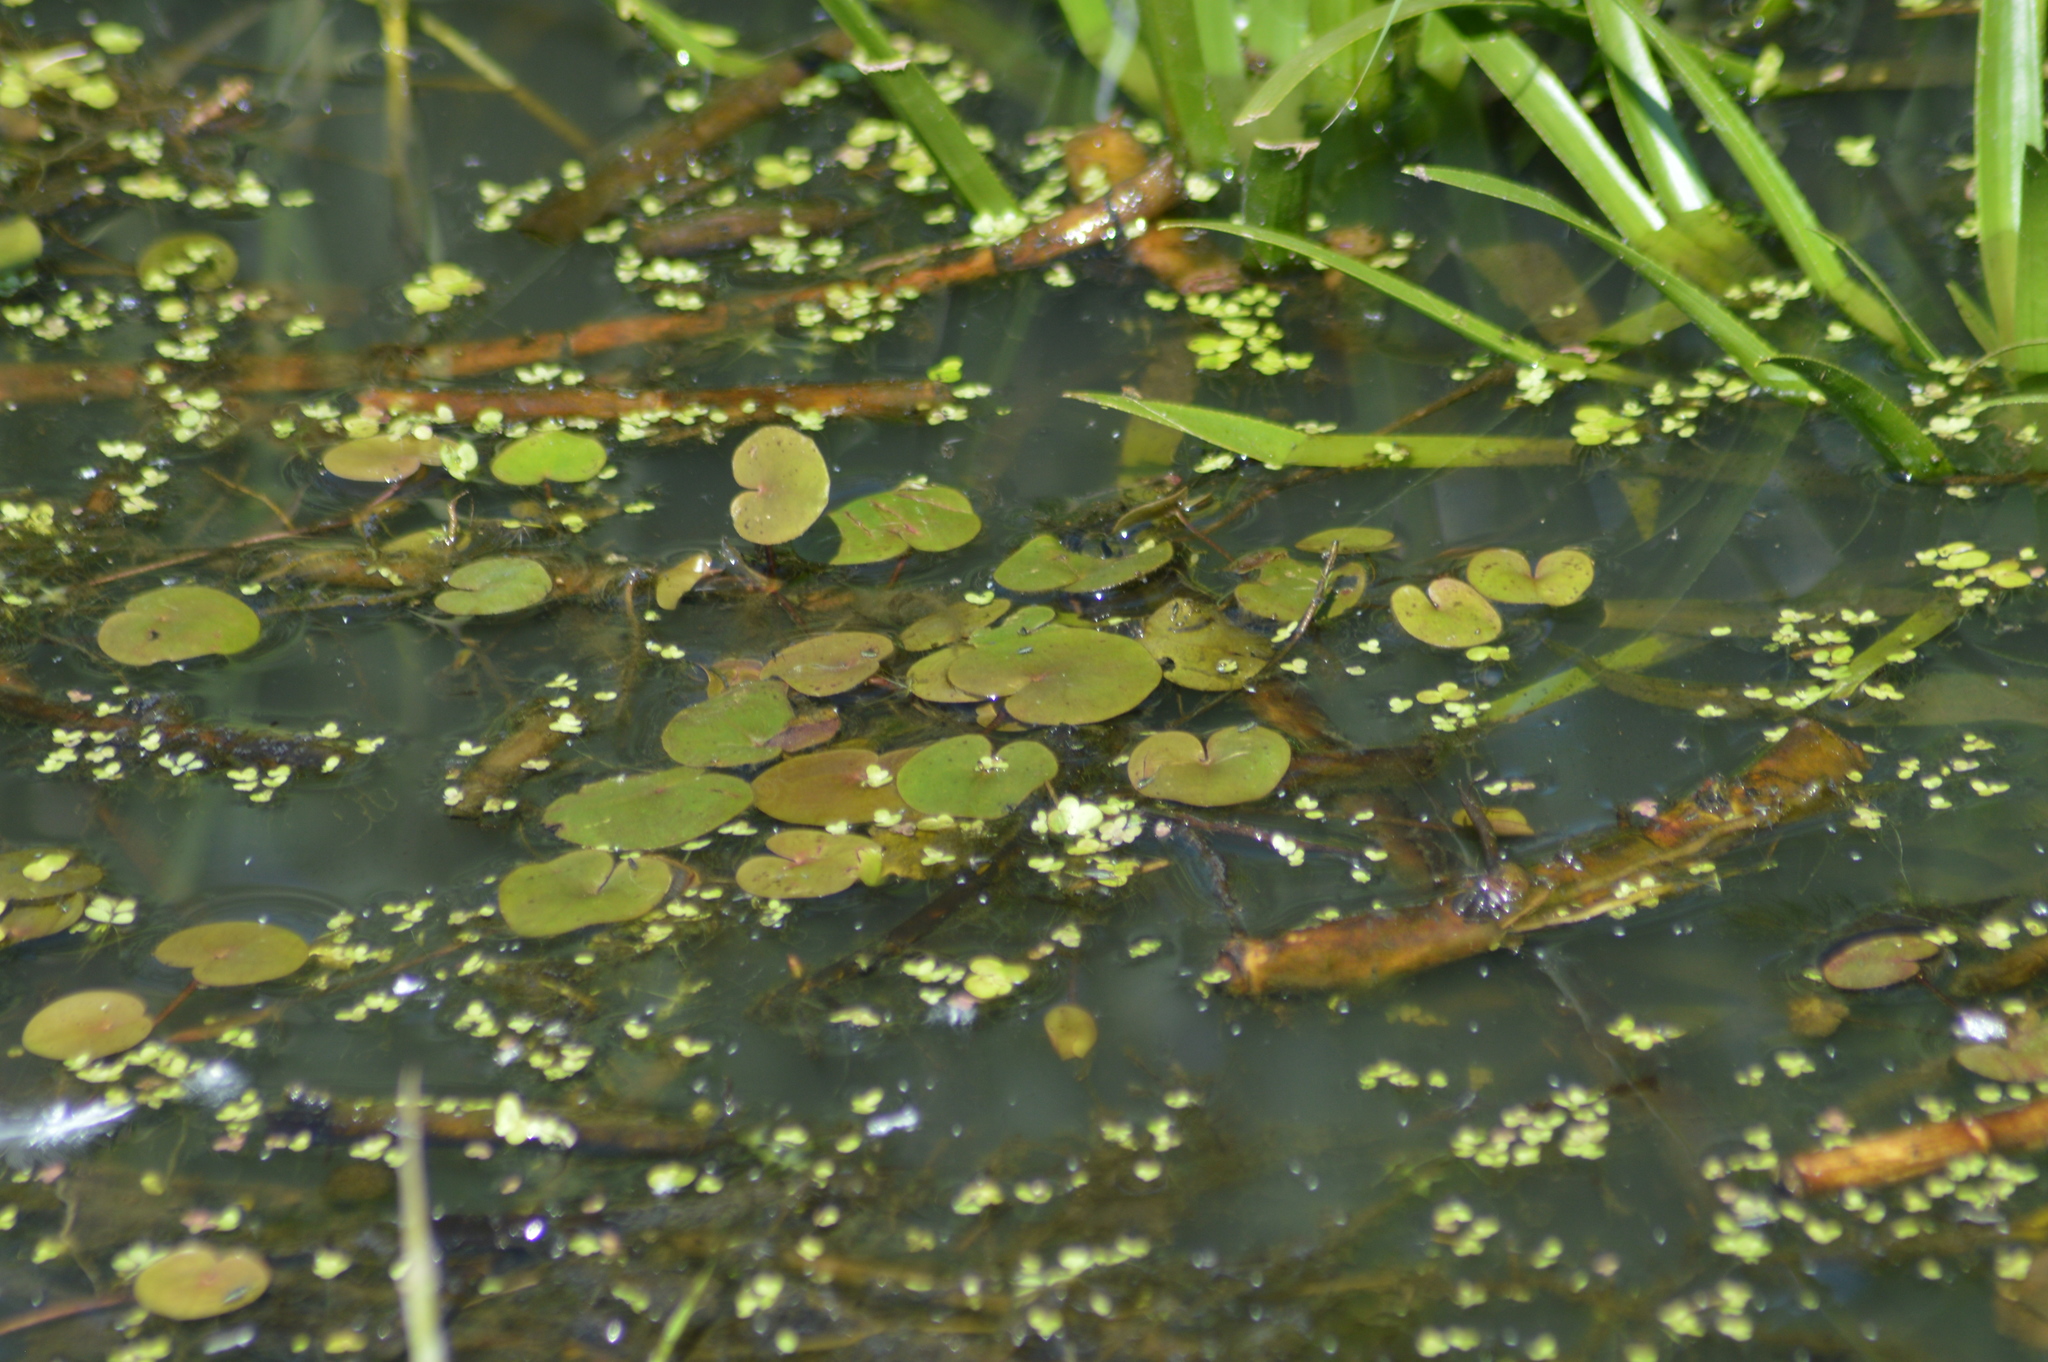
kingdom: Plantae
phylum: Tracheophyta
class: Liliopsida
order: Alismatales
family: Hydrocharitaceae
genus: Hydrocharis
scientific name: Hydrocharis morsus-ranae
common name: Frogbit
